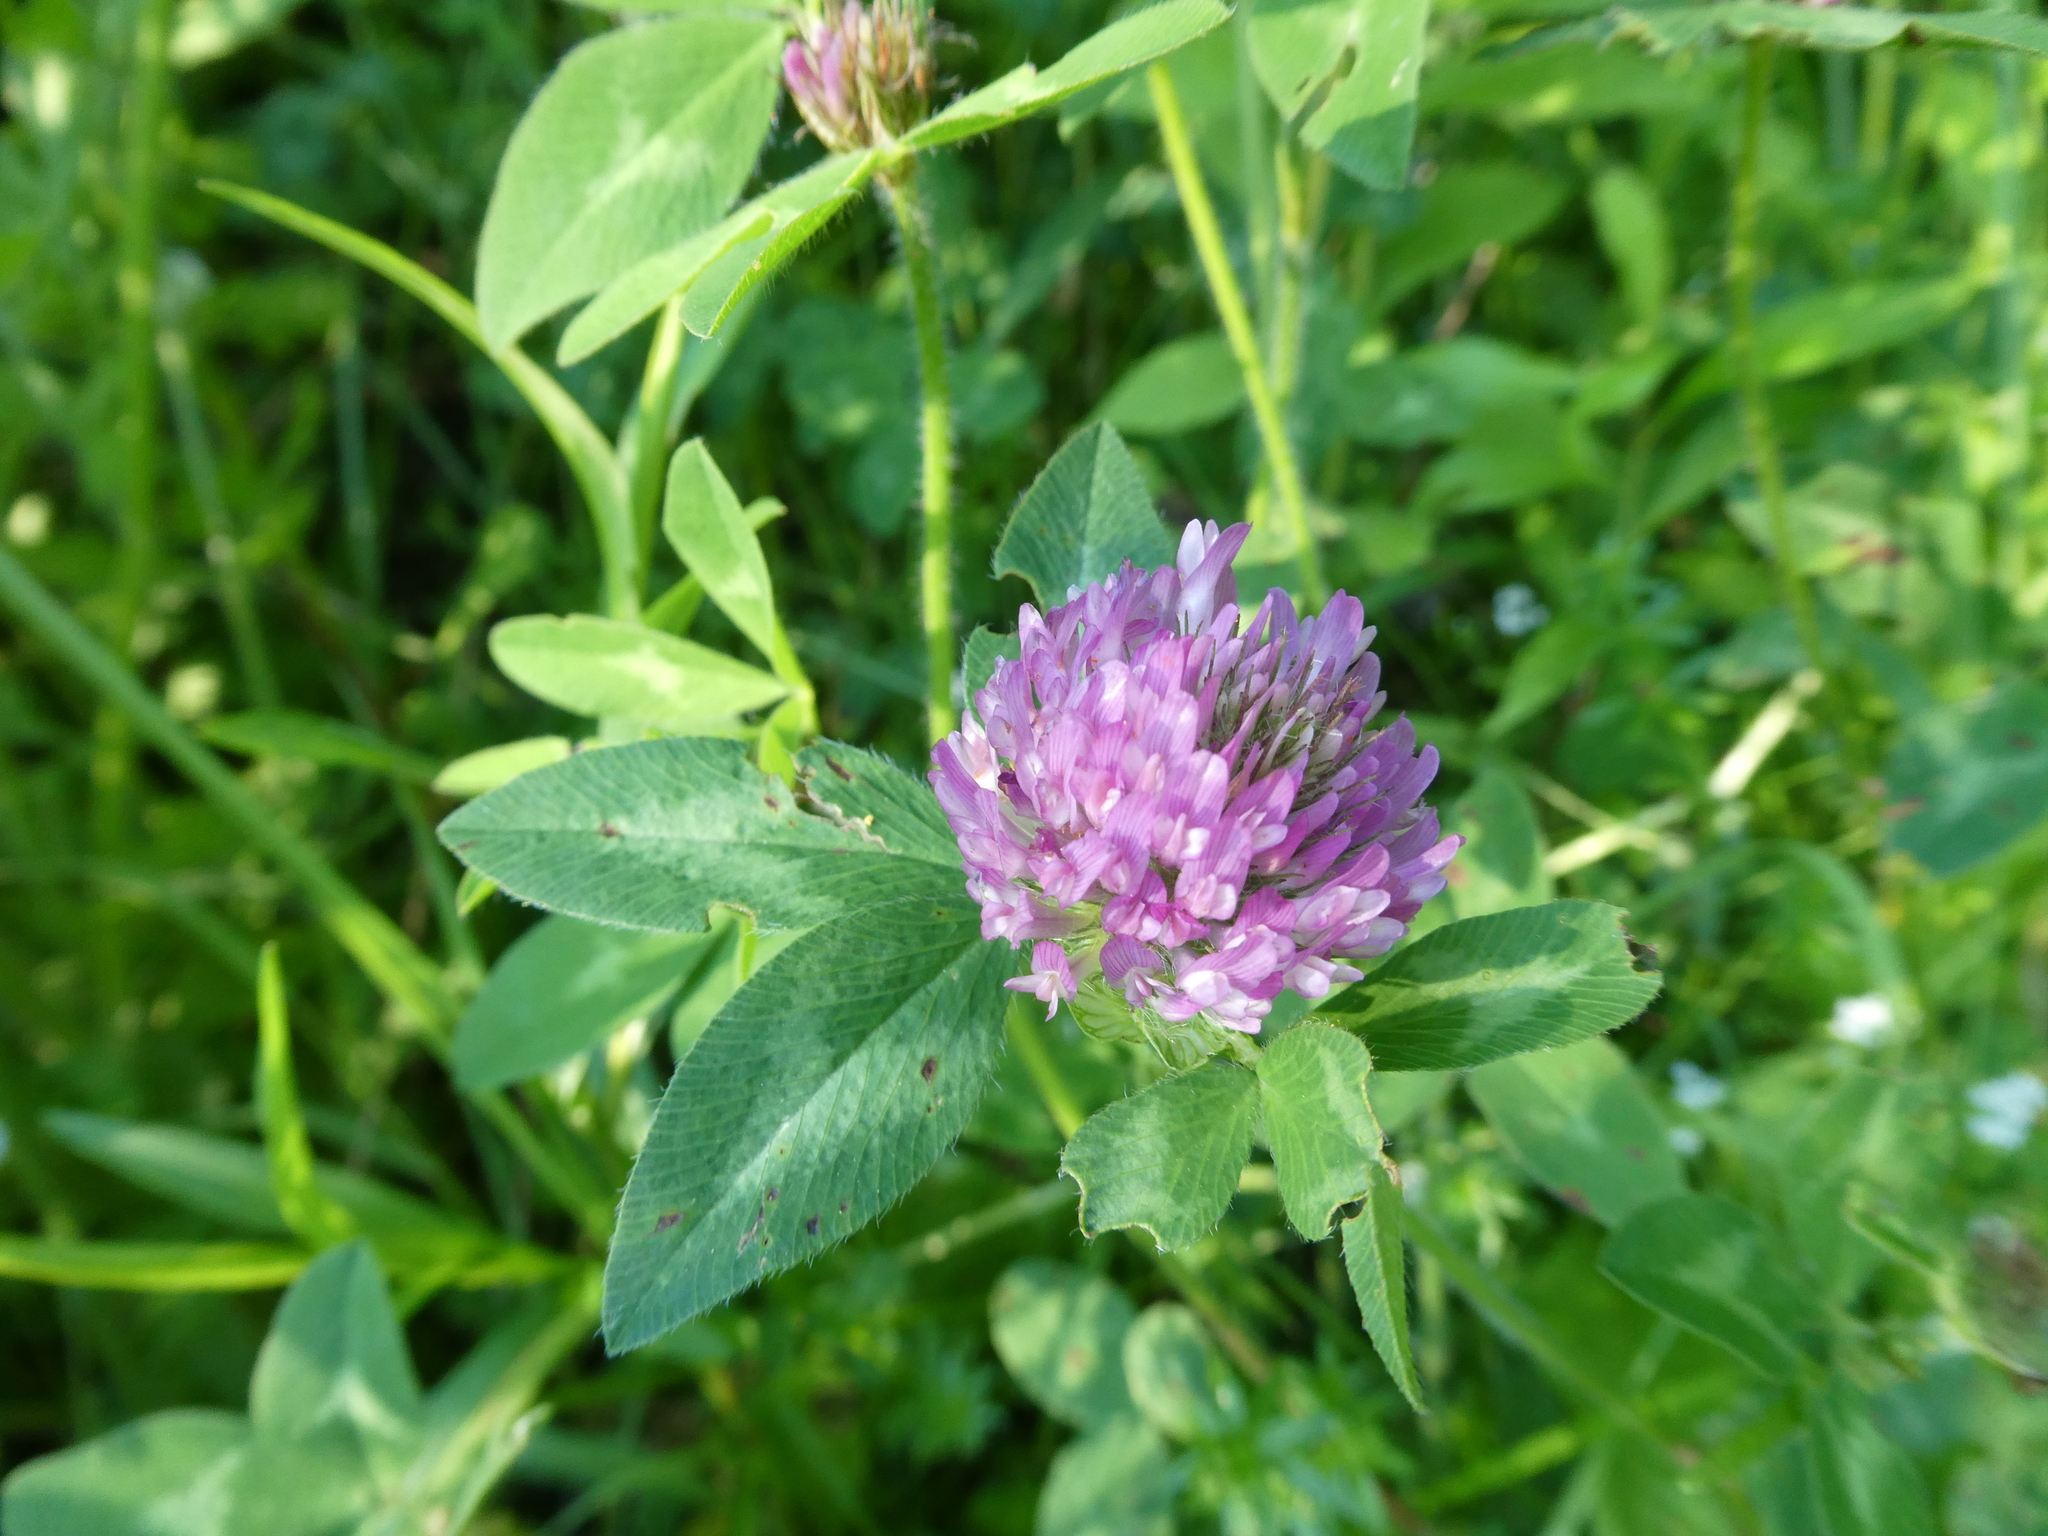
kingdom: Plantae
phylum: Tracheophyta
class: Magnoliopsida
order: Fabales
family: Fabaceae
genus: Trifolium
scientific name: Trifolium pratense
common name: Red clover
